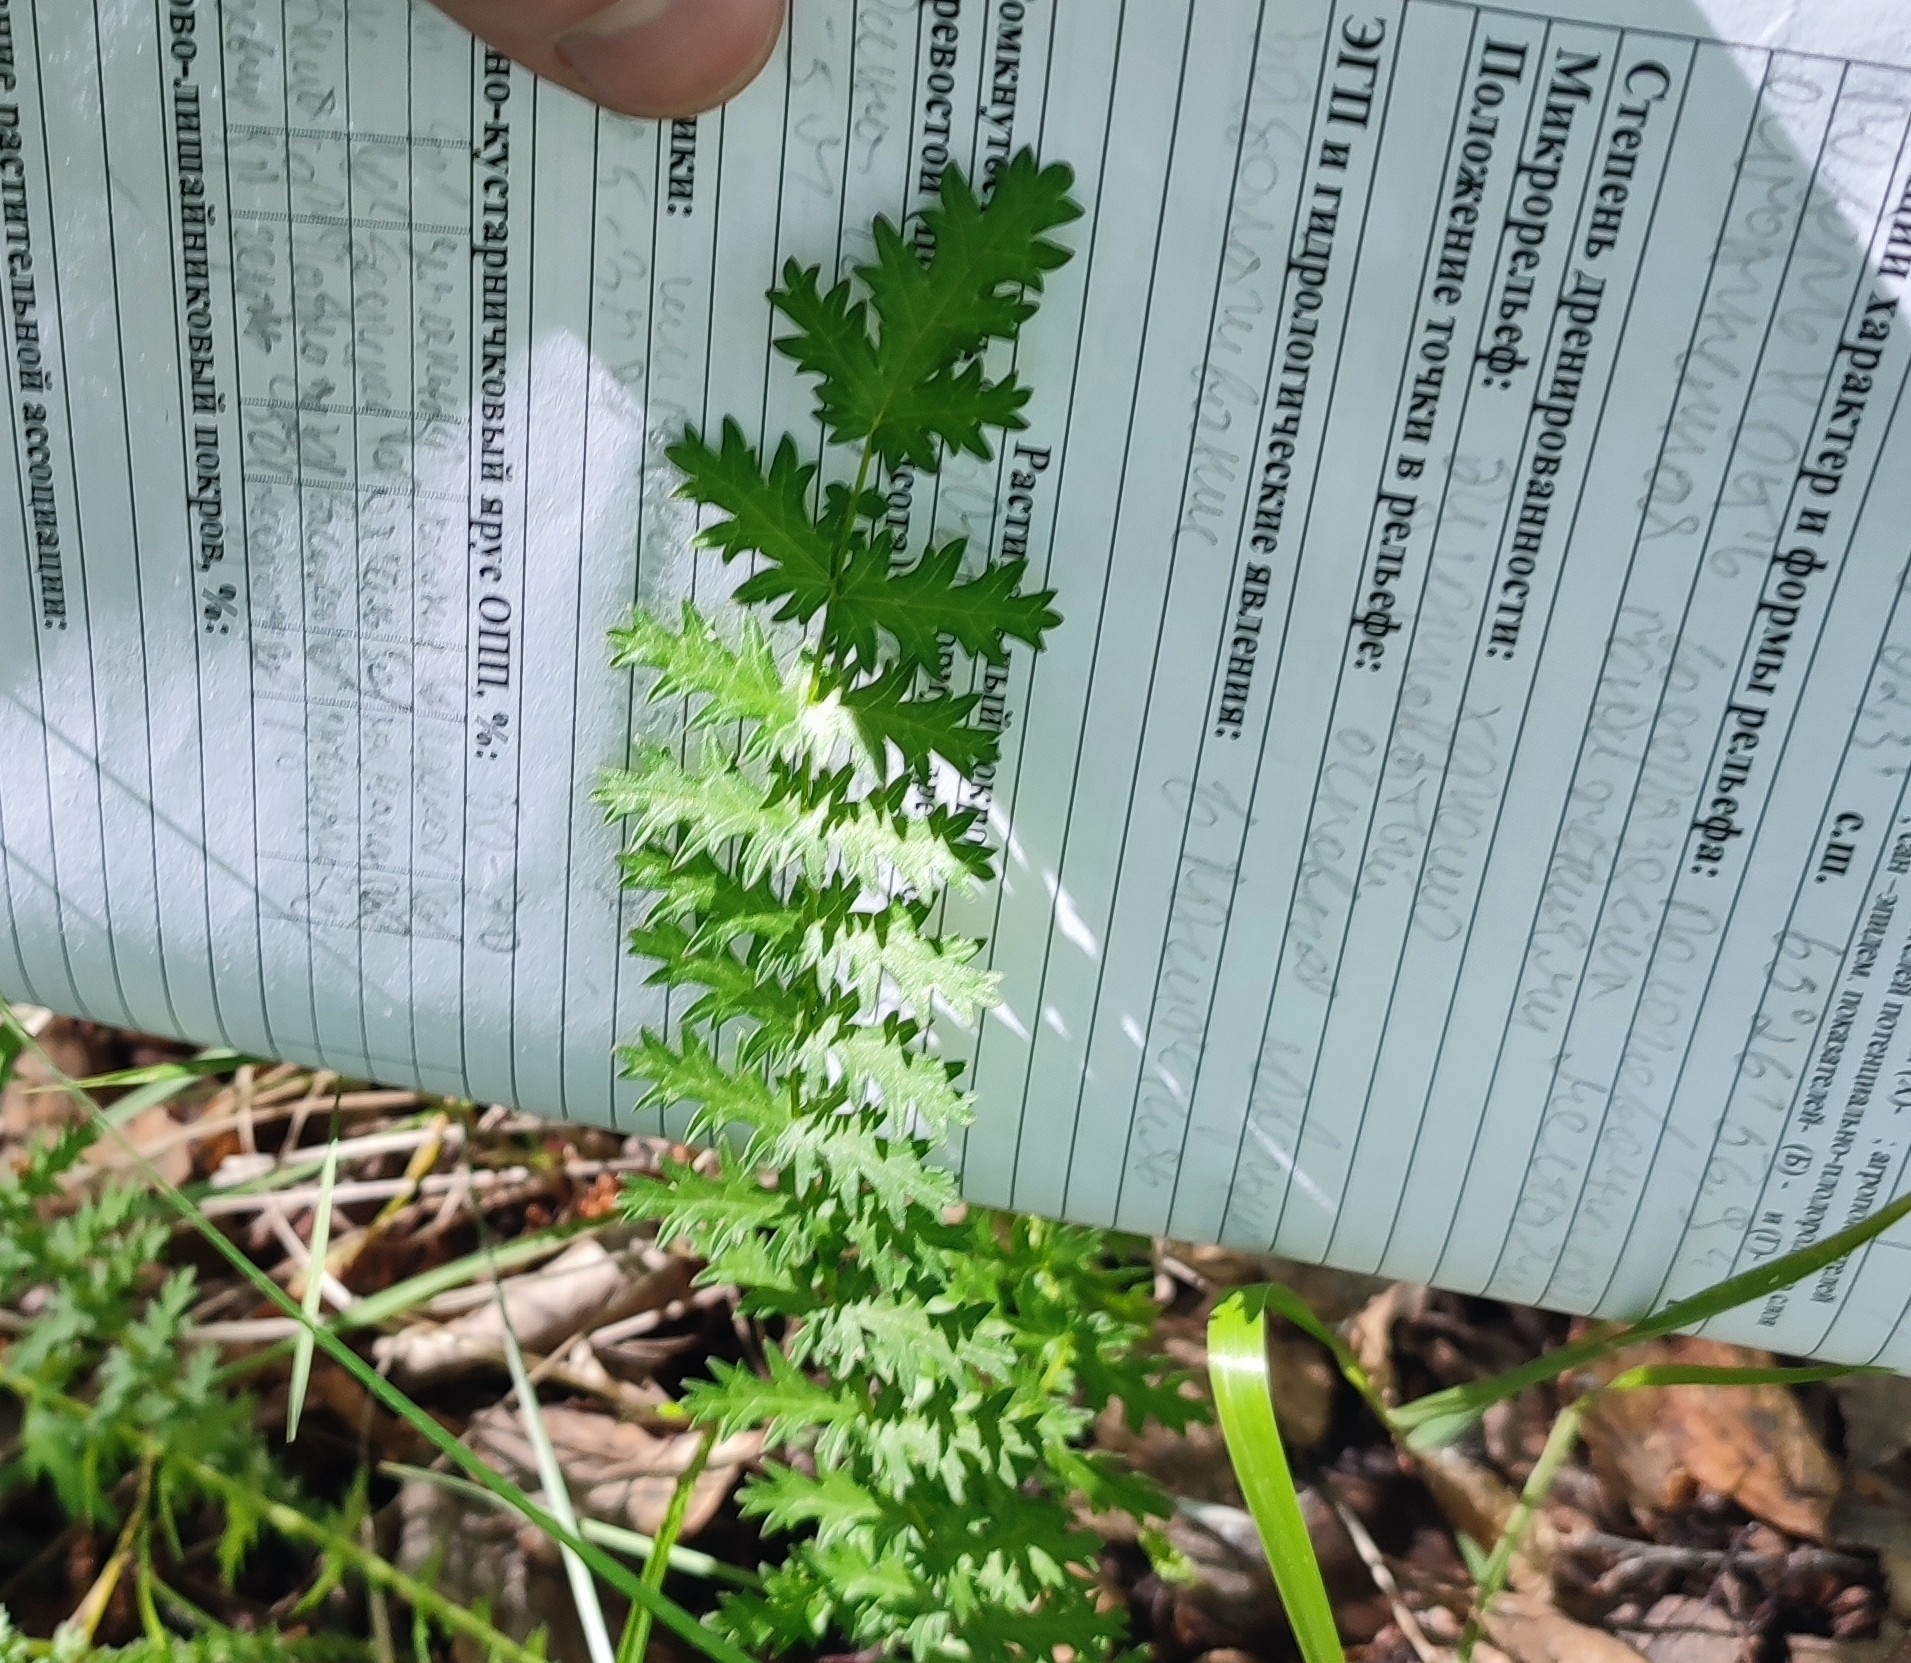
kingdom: Plantae
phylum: Tracheophyta
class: Magnoliopsida
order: Rosales
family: Rosaceae
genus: Filipendula
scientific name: Filipendula vulgaris
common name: Dropwort
